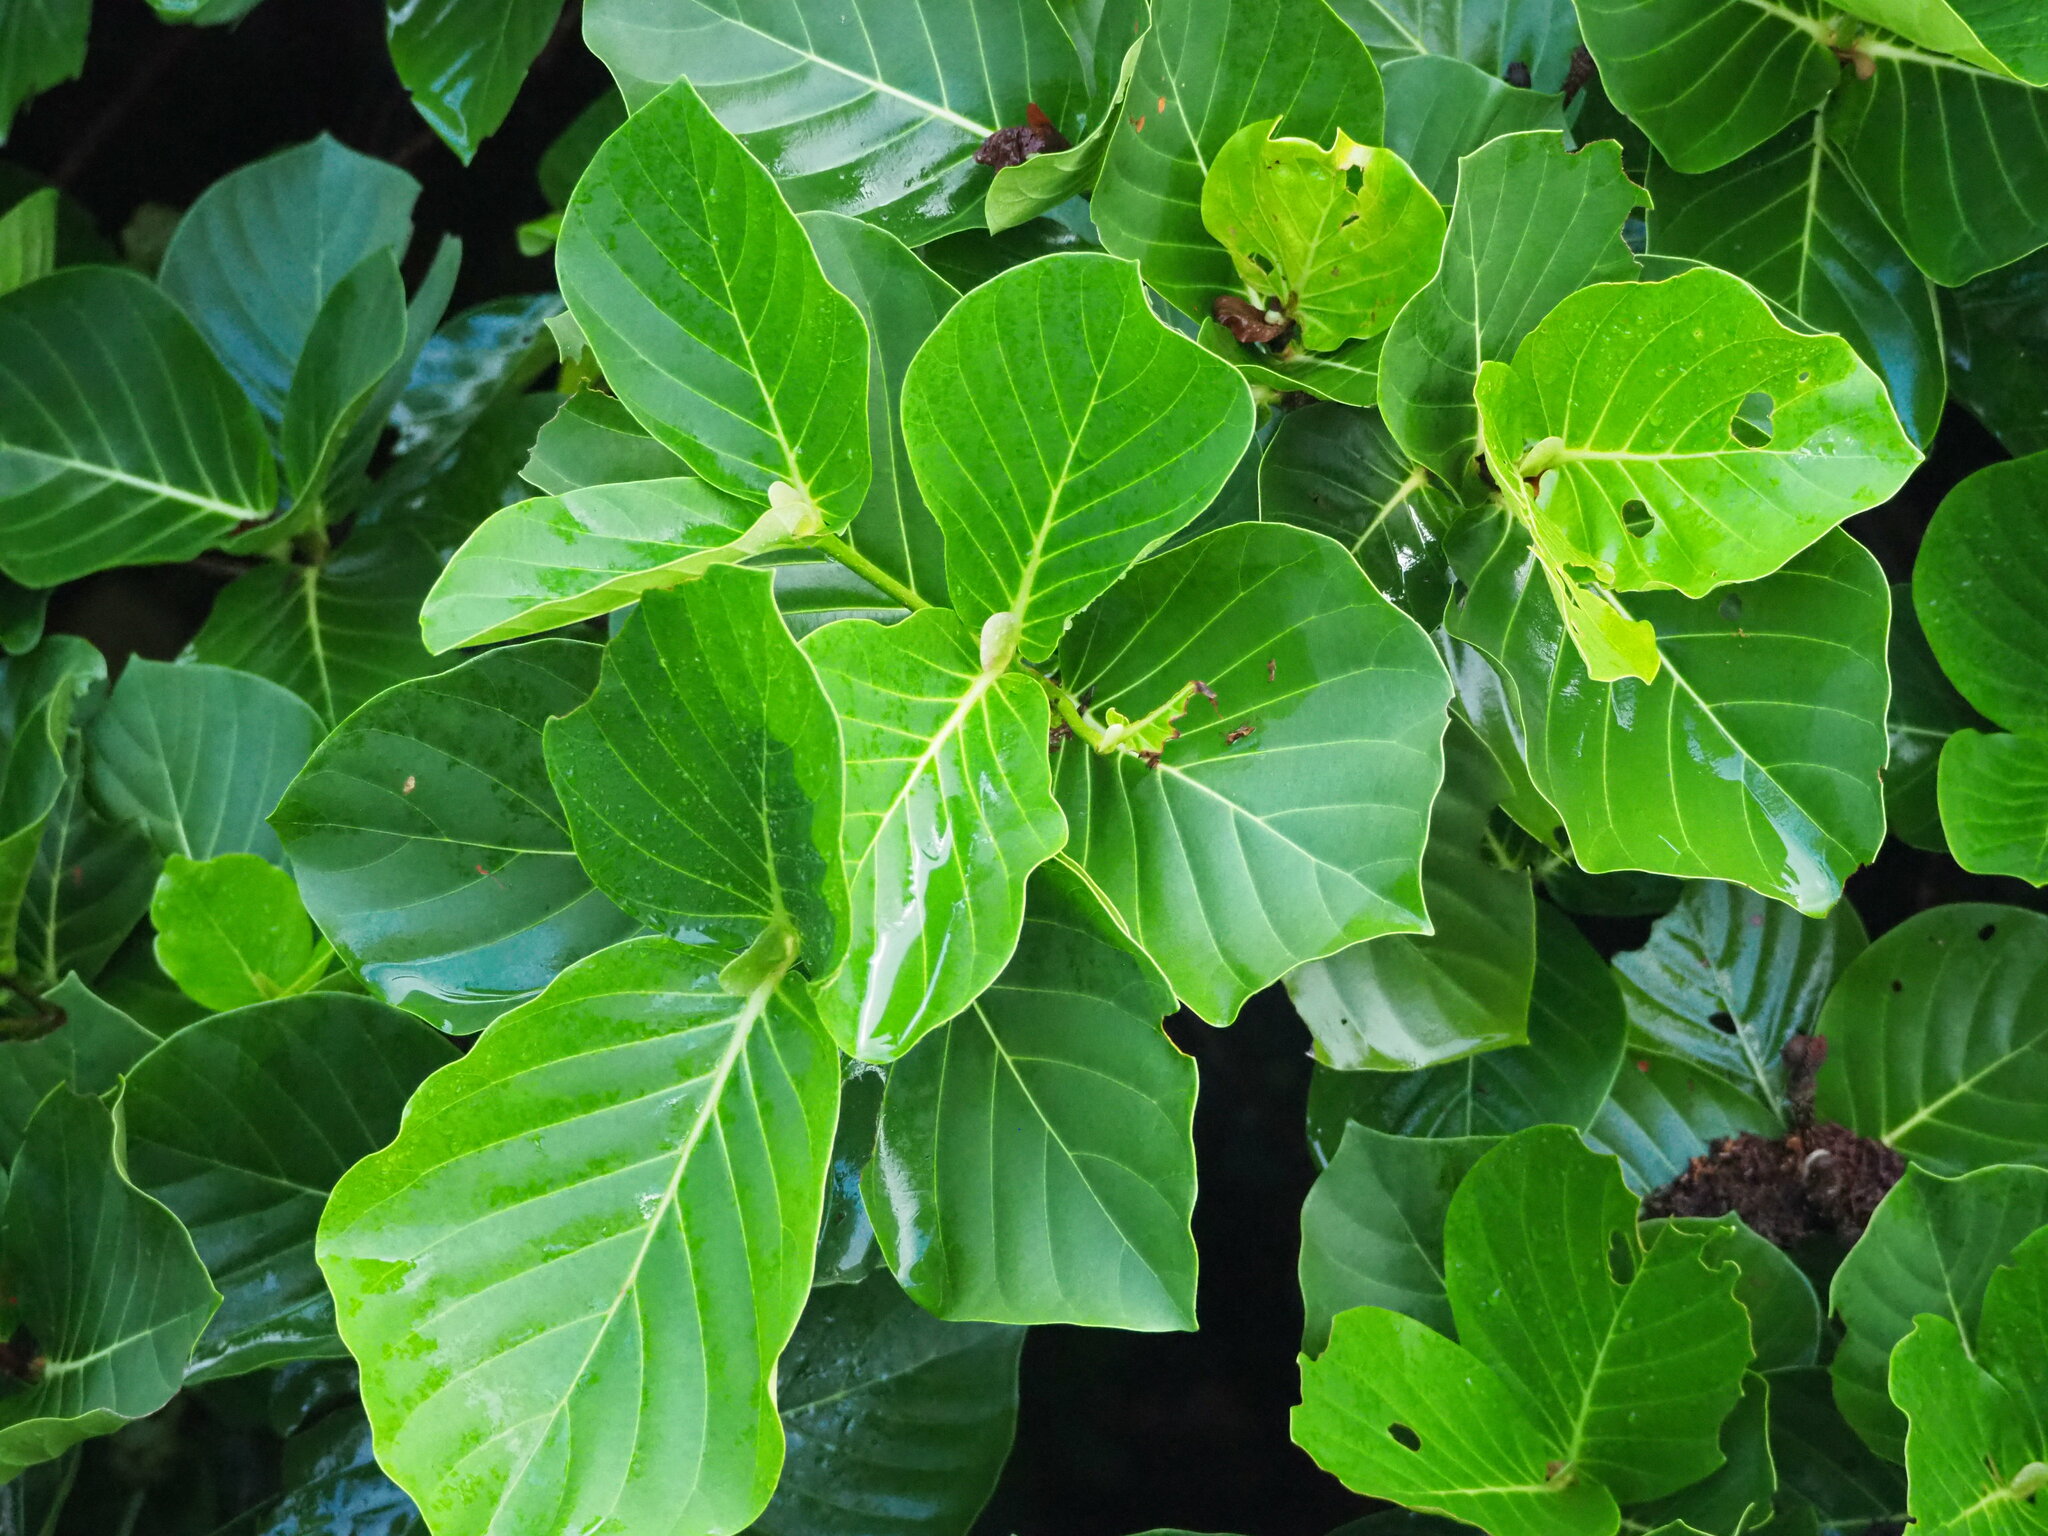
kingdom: Plantae
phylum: Tracheophyta
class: Magnoliopsida
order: Gentianales
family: Rubiaceae
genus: Neonauclea
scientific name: Neonauclea reticulata
